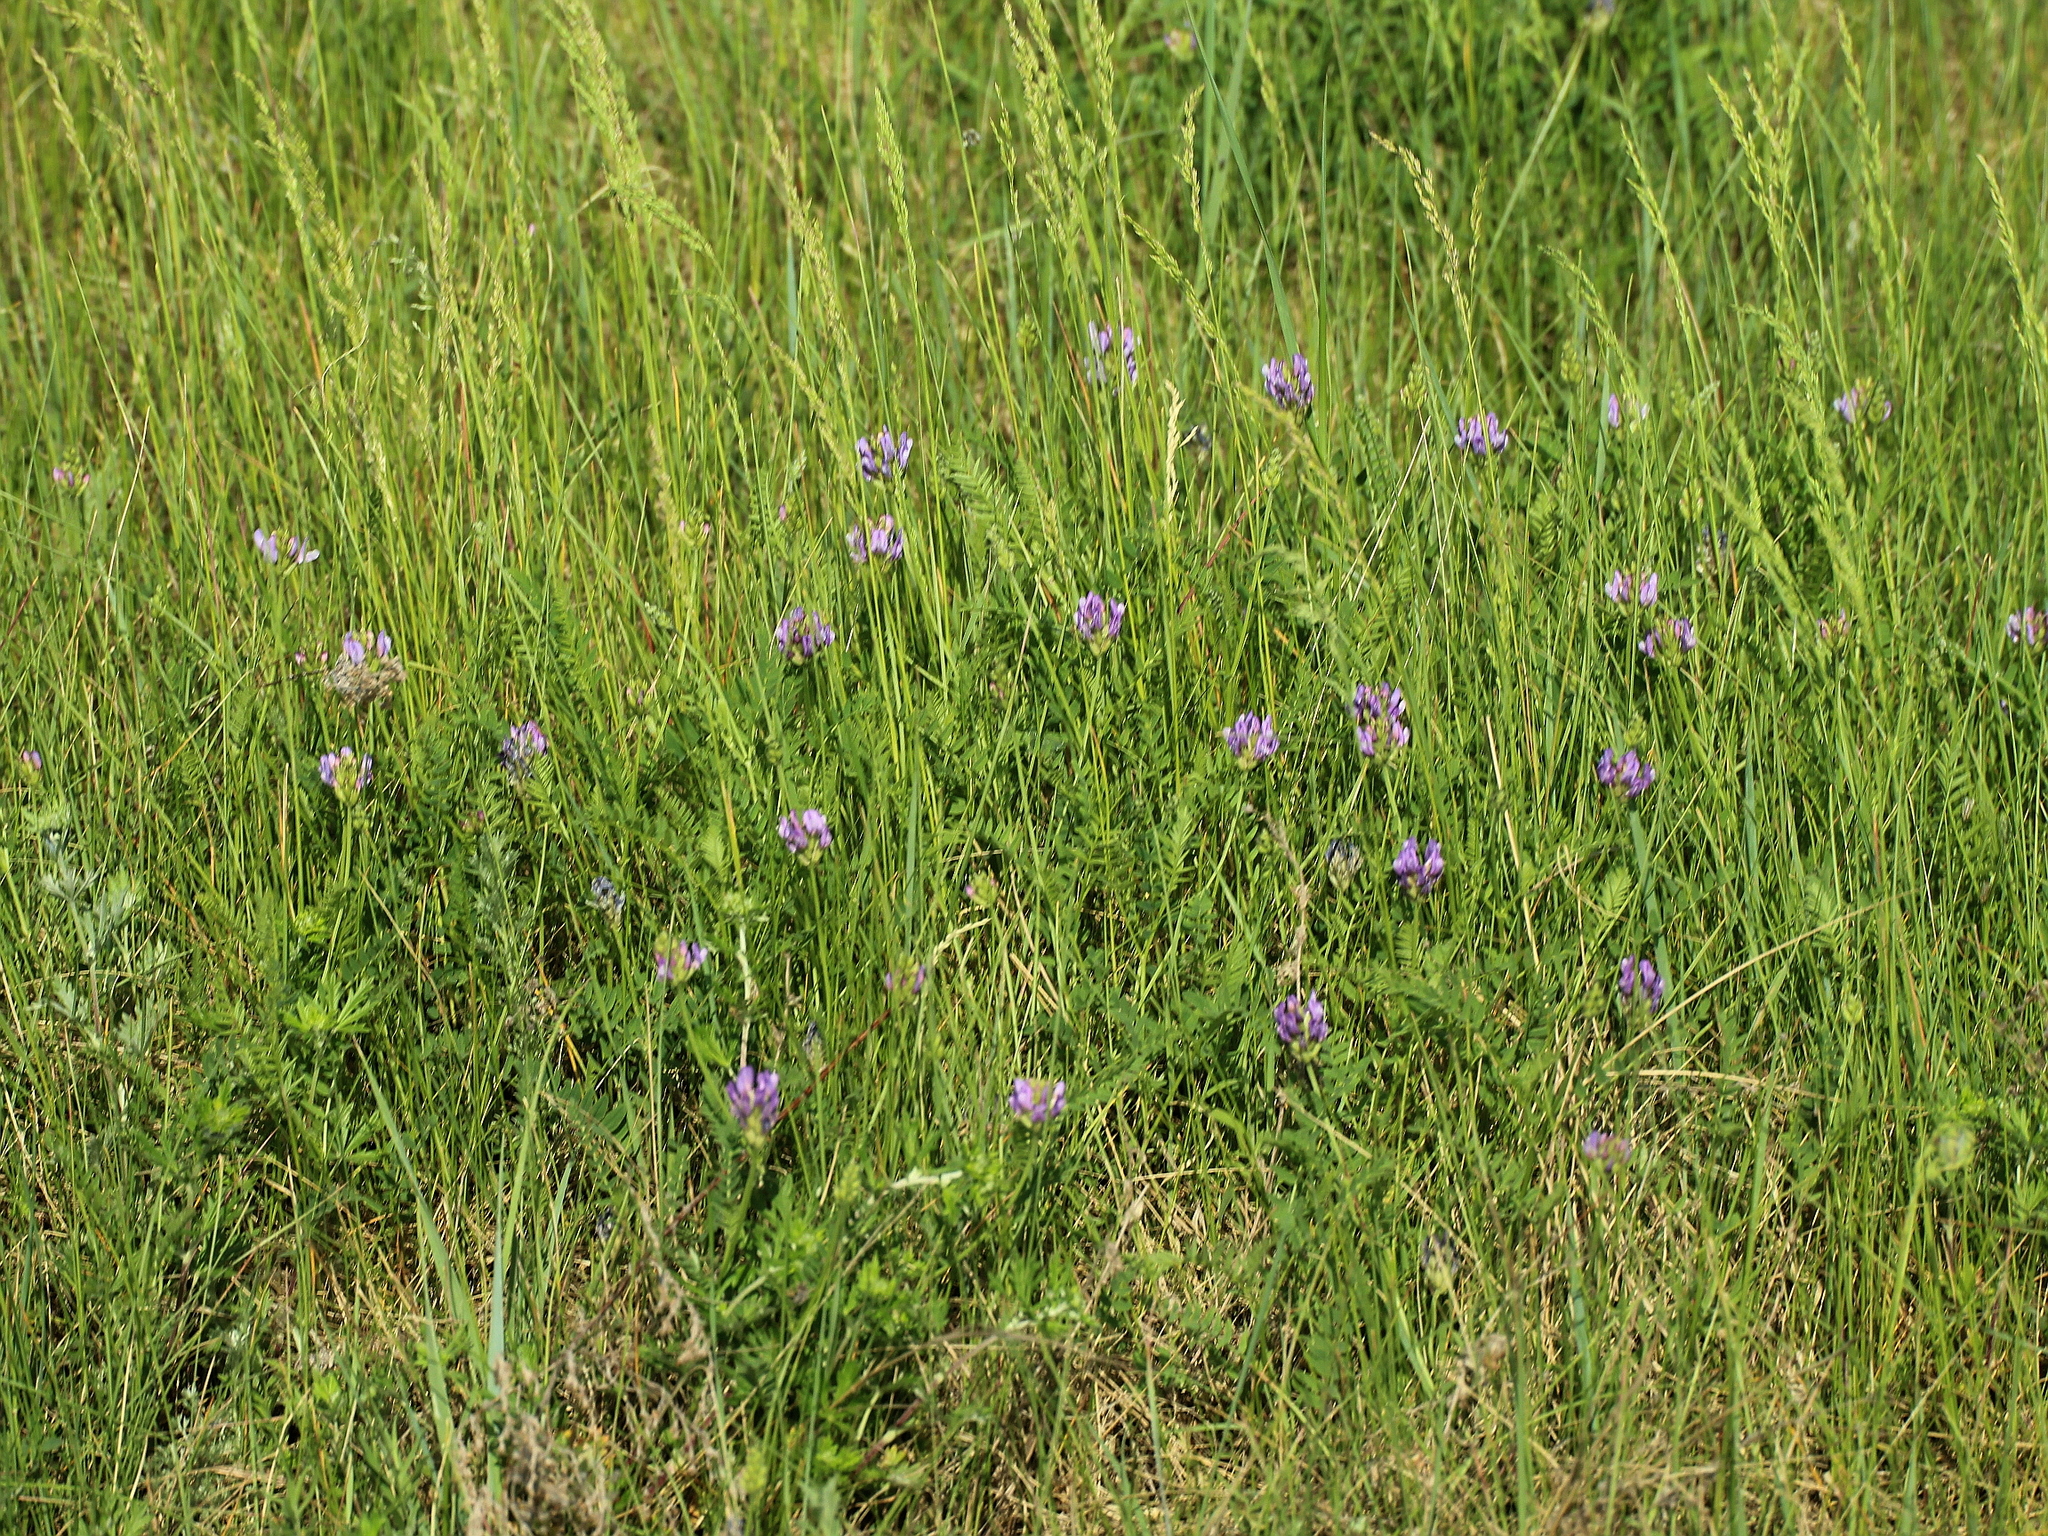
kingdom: Plantae
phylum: Tracheophyta
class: Magnoliopsida
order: Fabales
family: Fabaceae
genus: Astragalus
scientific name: Astragalus danicus
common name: Purple milk-vetch
